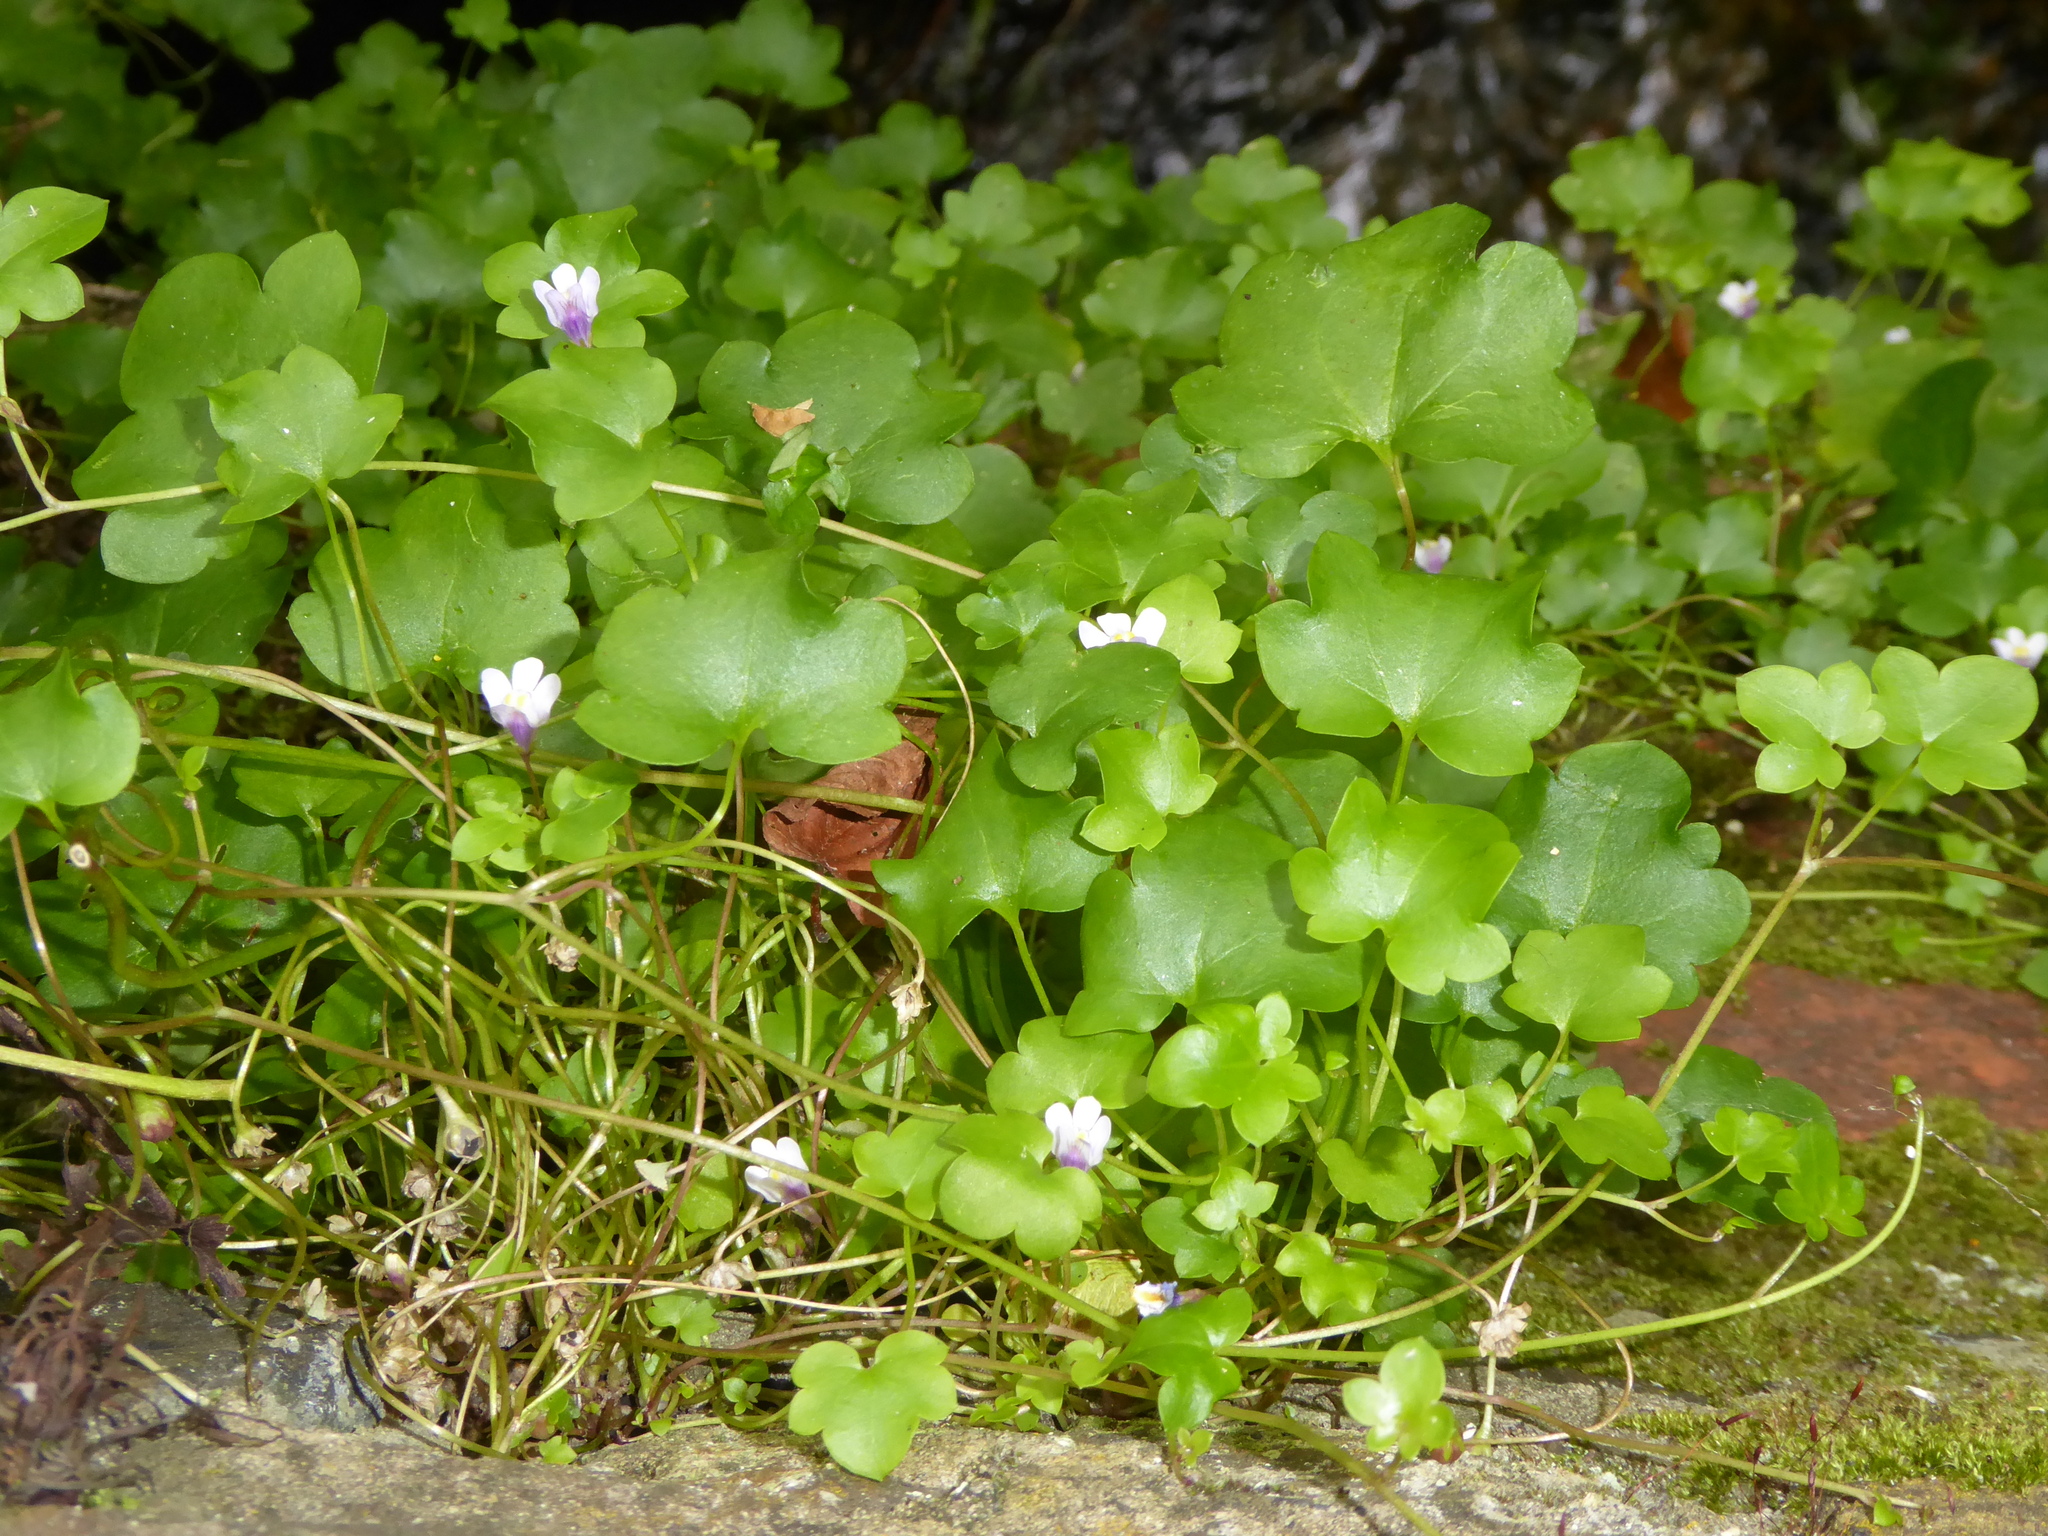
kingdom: Plantae
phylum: Tracheophyta
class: Magnoliopsida
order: Lamiales
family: Plantaginaceae
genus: Cymbalaria
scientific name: Cymbalaria muralis
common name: Ivy-leaved toadflax
